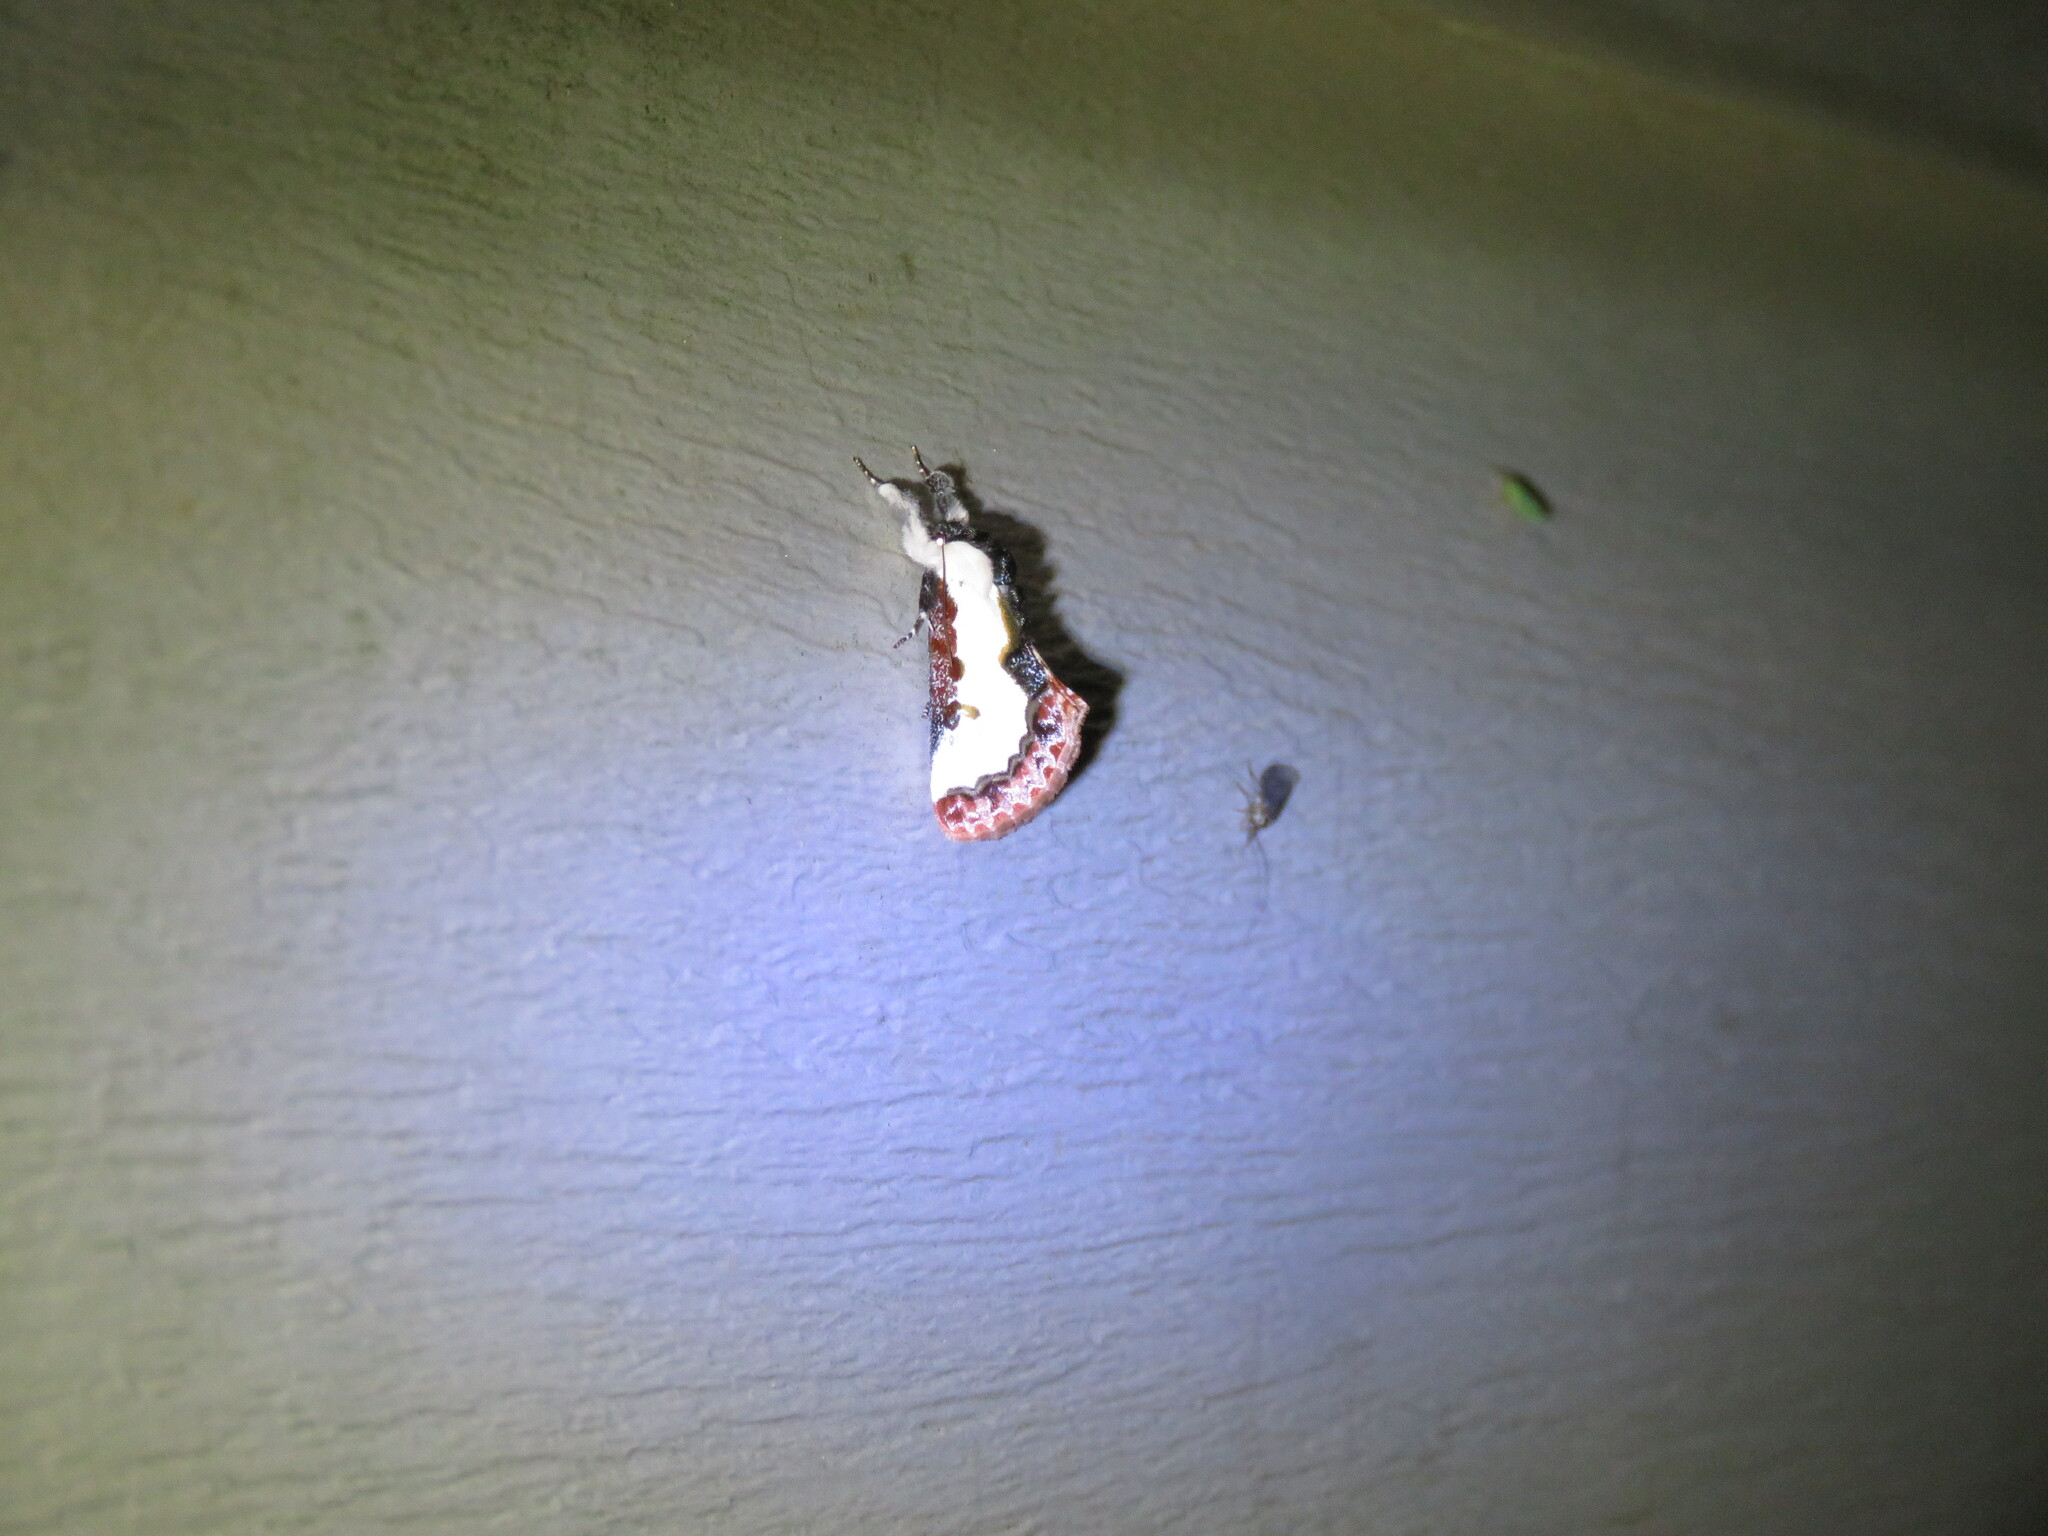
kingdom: Animalia
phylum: Arthropoda
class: Insecta
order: Lepidoptera
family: Noctuidae
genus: Eudryas
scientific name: Eudryas unio
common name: Pearly wood-nymph
